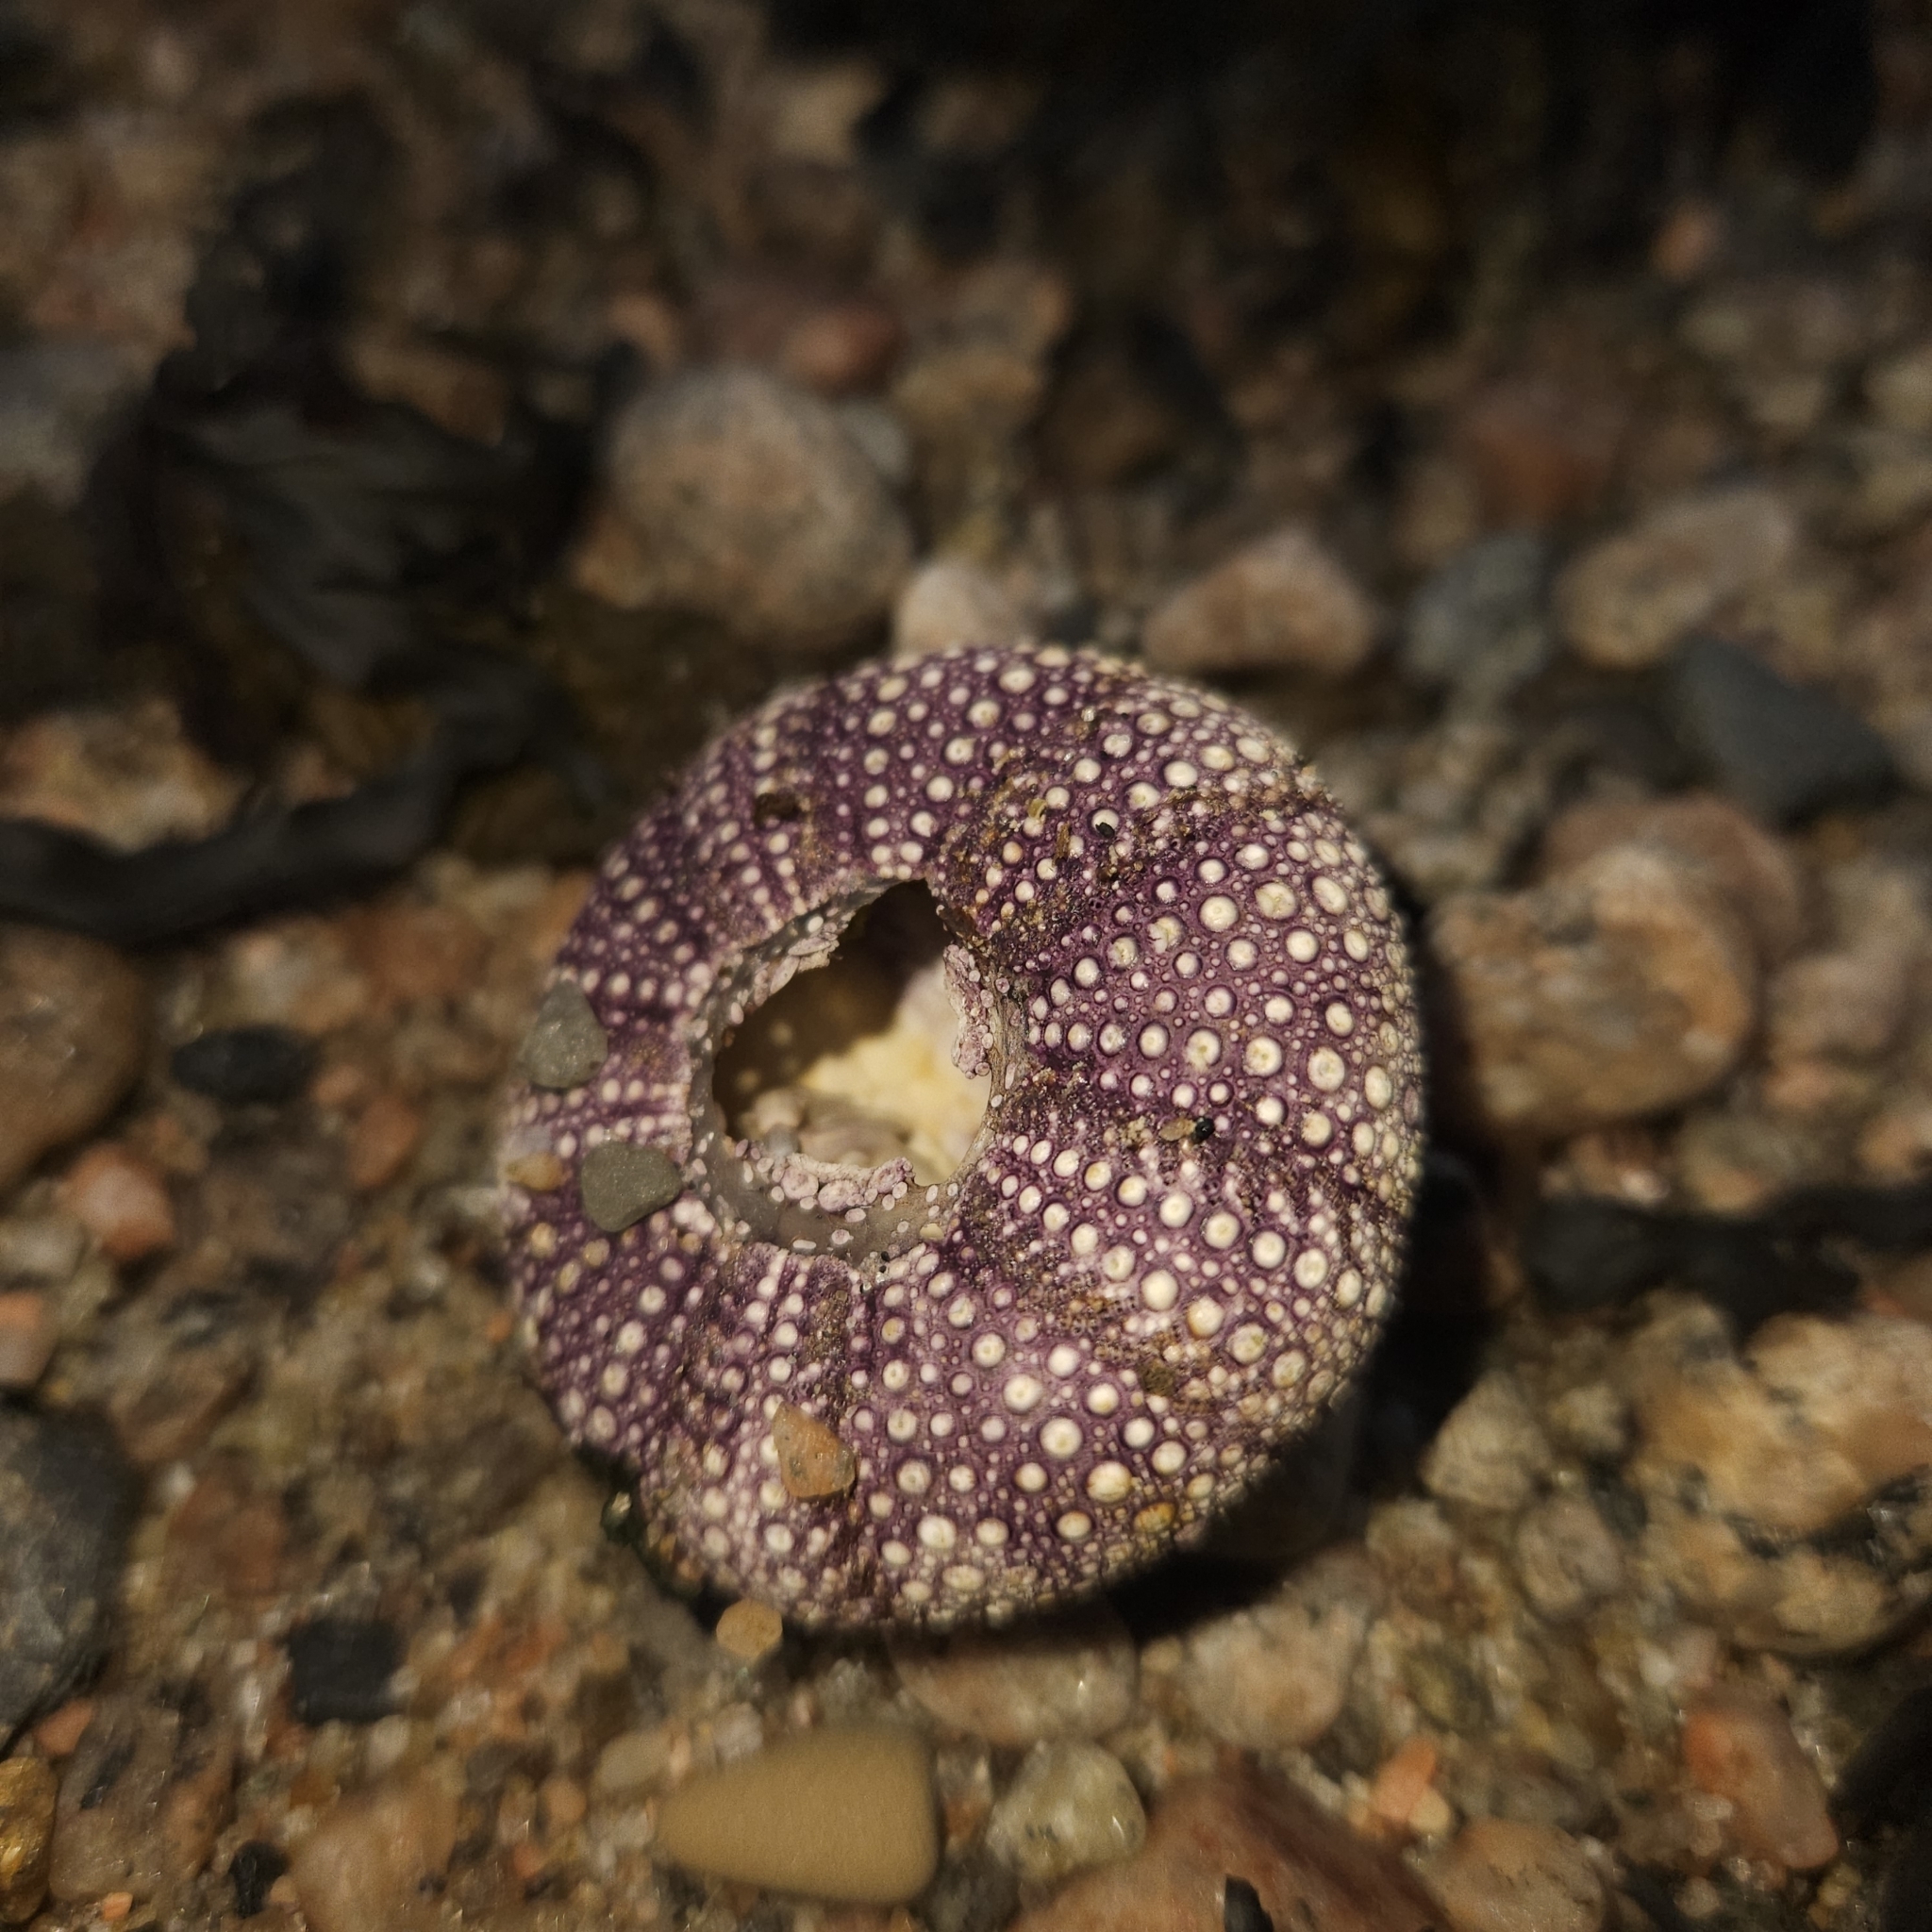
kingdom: Animalia
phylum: Echinodermata
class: Echinoidea
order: Camarodonta
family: Strongylocentrotidae
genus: Strongylocentrotus
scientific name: Strongylocentrotus droebachiensis
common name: Northern sea urchin
